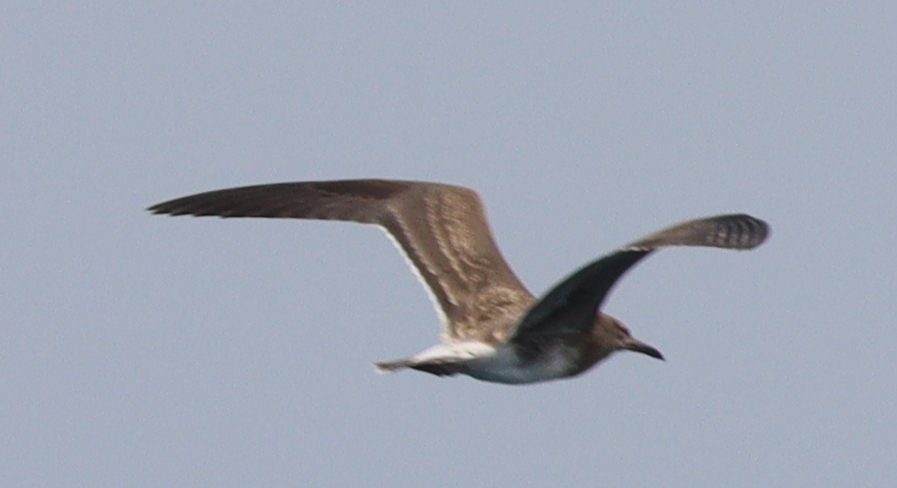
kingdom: Animalia
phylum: Chordata
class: Aves
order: Charadriiformes
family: Laridae
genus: Ichthyaetus
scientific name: Ichthyaetus hemprichii
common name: Sooty gull
